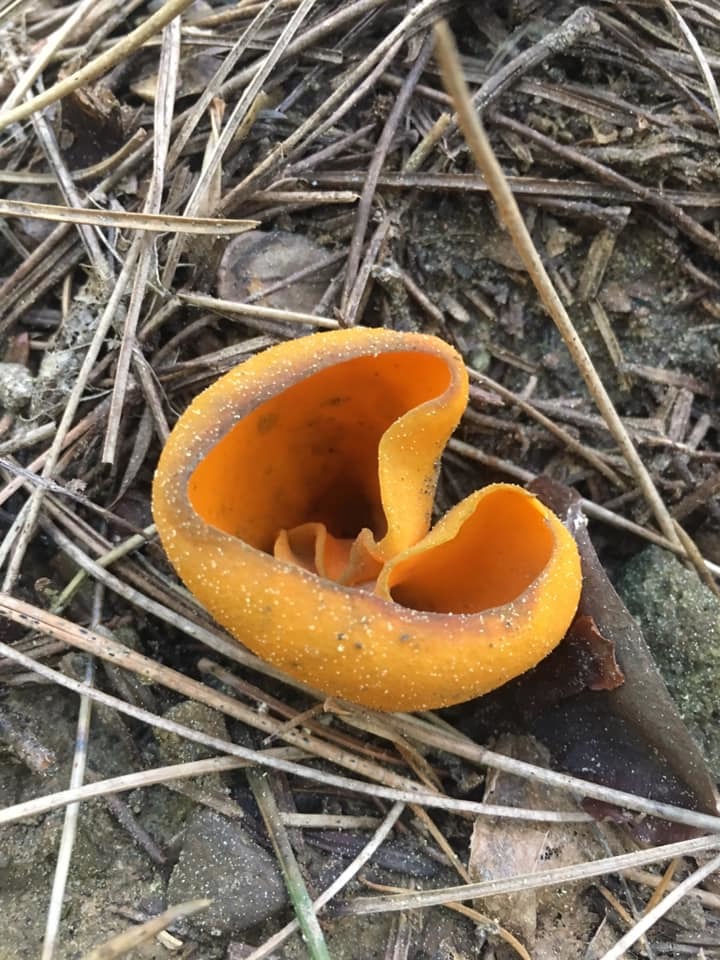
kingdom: Fungi
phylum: Ascomycota
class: Pezizomycetes
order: Pezizales
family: Caloscyphaceae
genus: Caloscypha
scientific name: Caloscypha fulgens
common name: Golden cup
